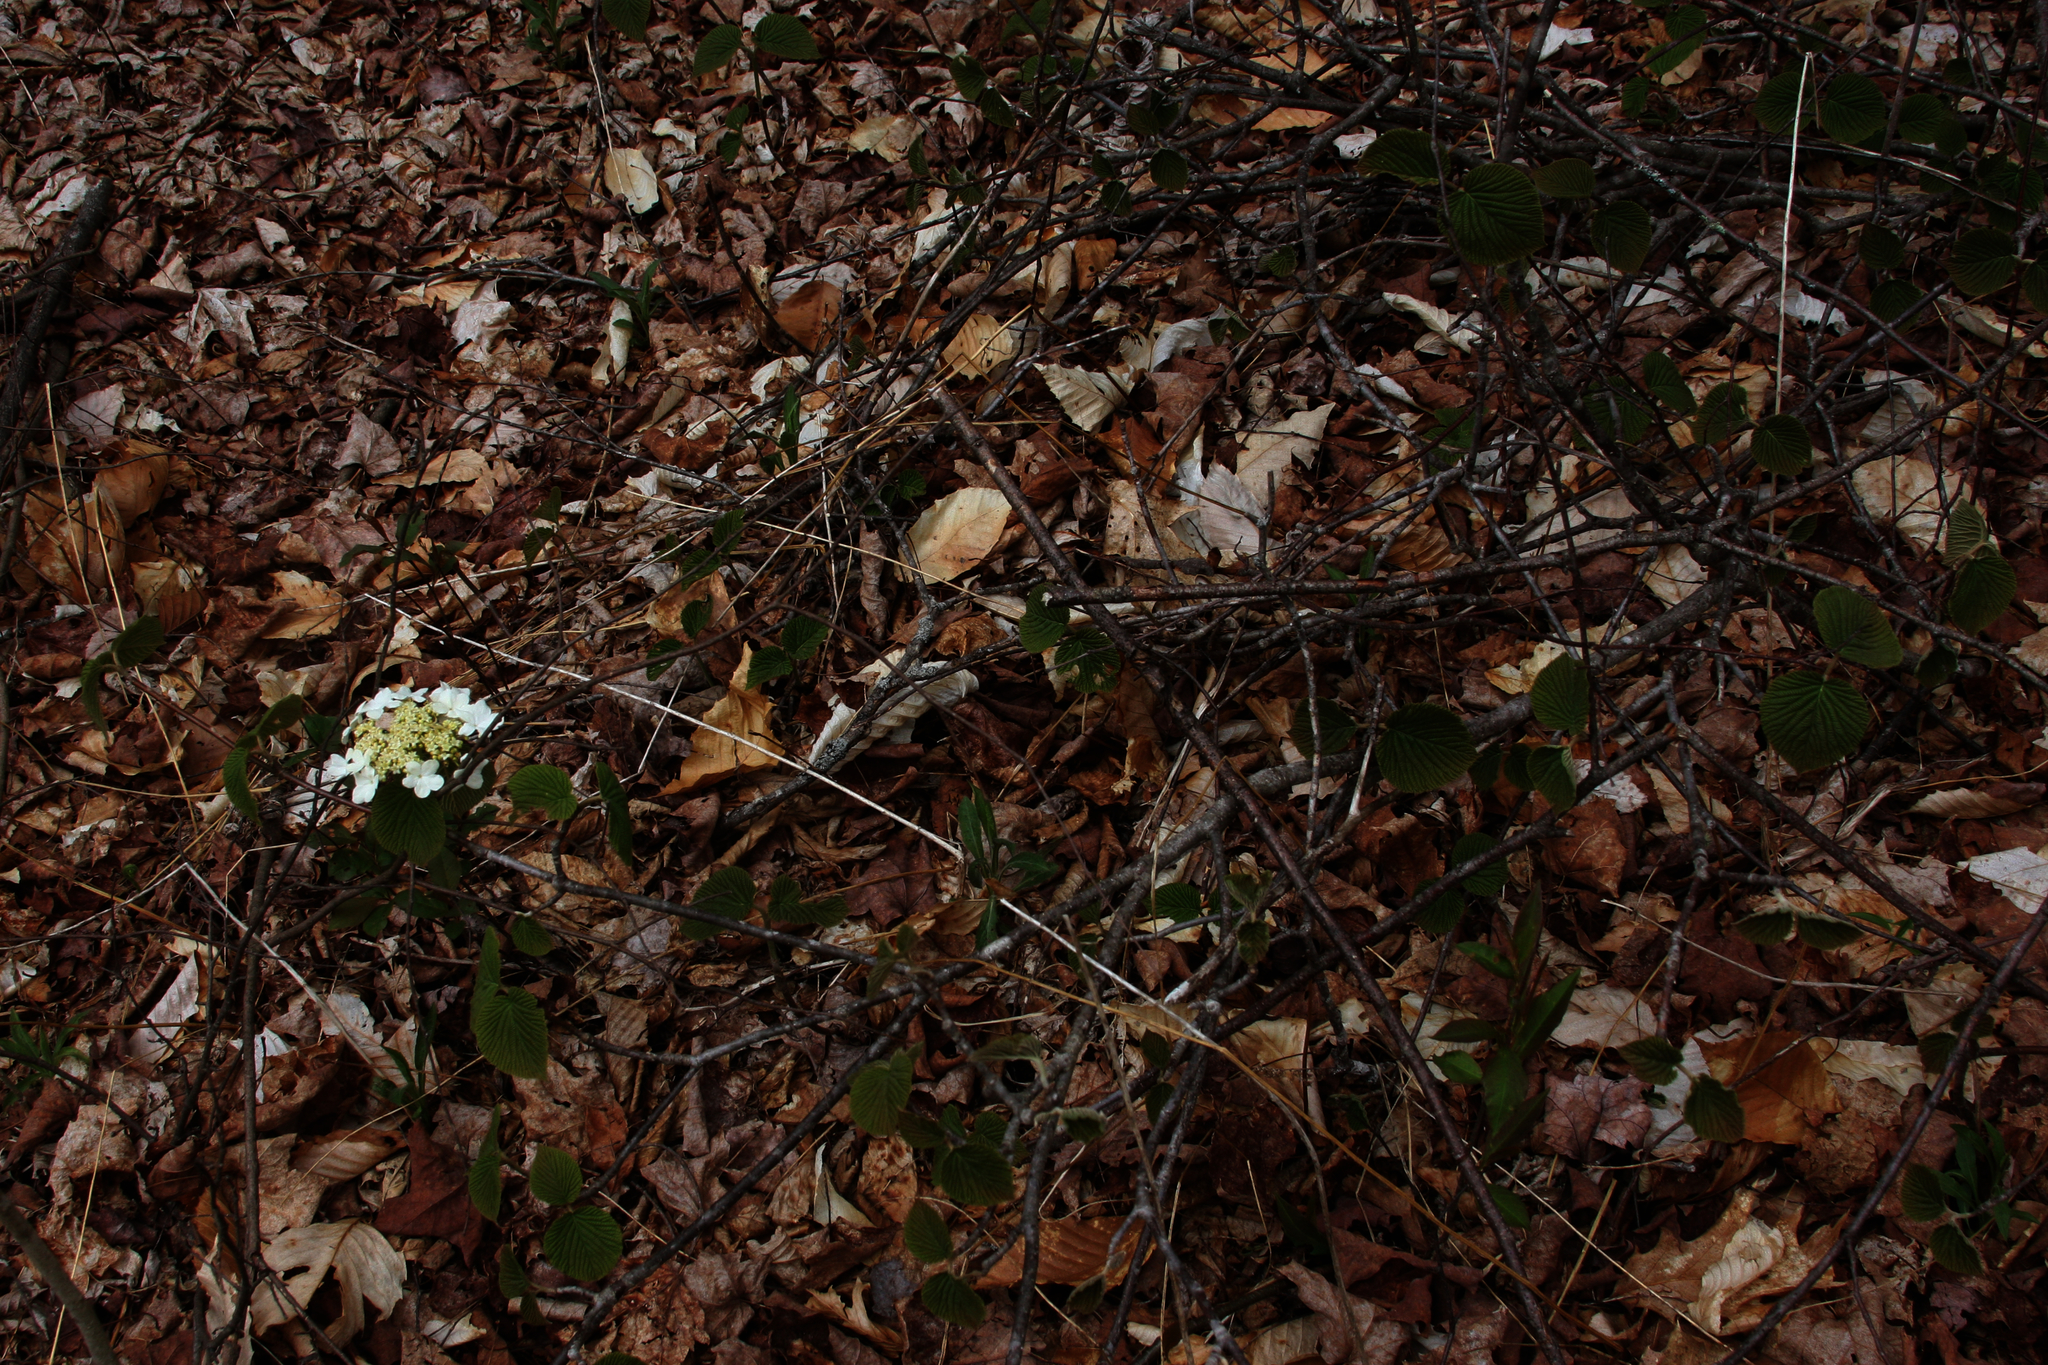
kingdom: Plantae
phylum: Tracheophyta
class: Magnoliopsida
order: Dipsacales
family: Viburnaceae
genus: Viburnum
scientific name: Viburnum lantanoides
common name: Hobblebush
